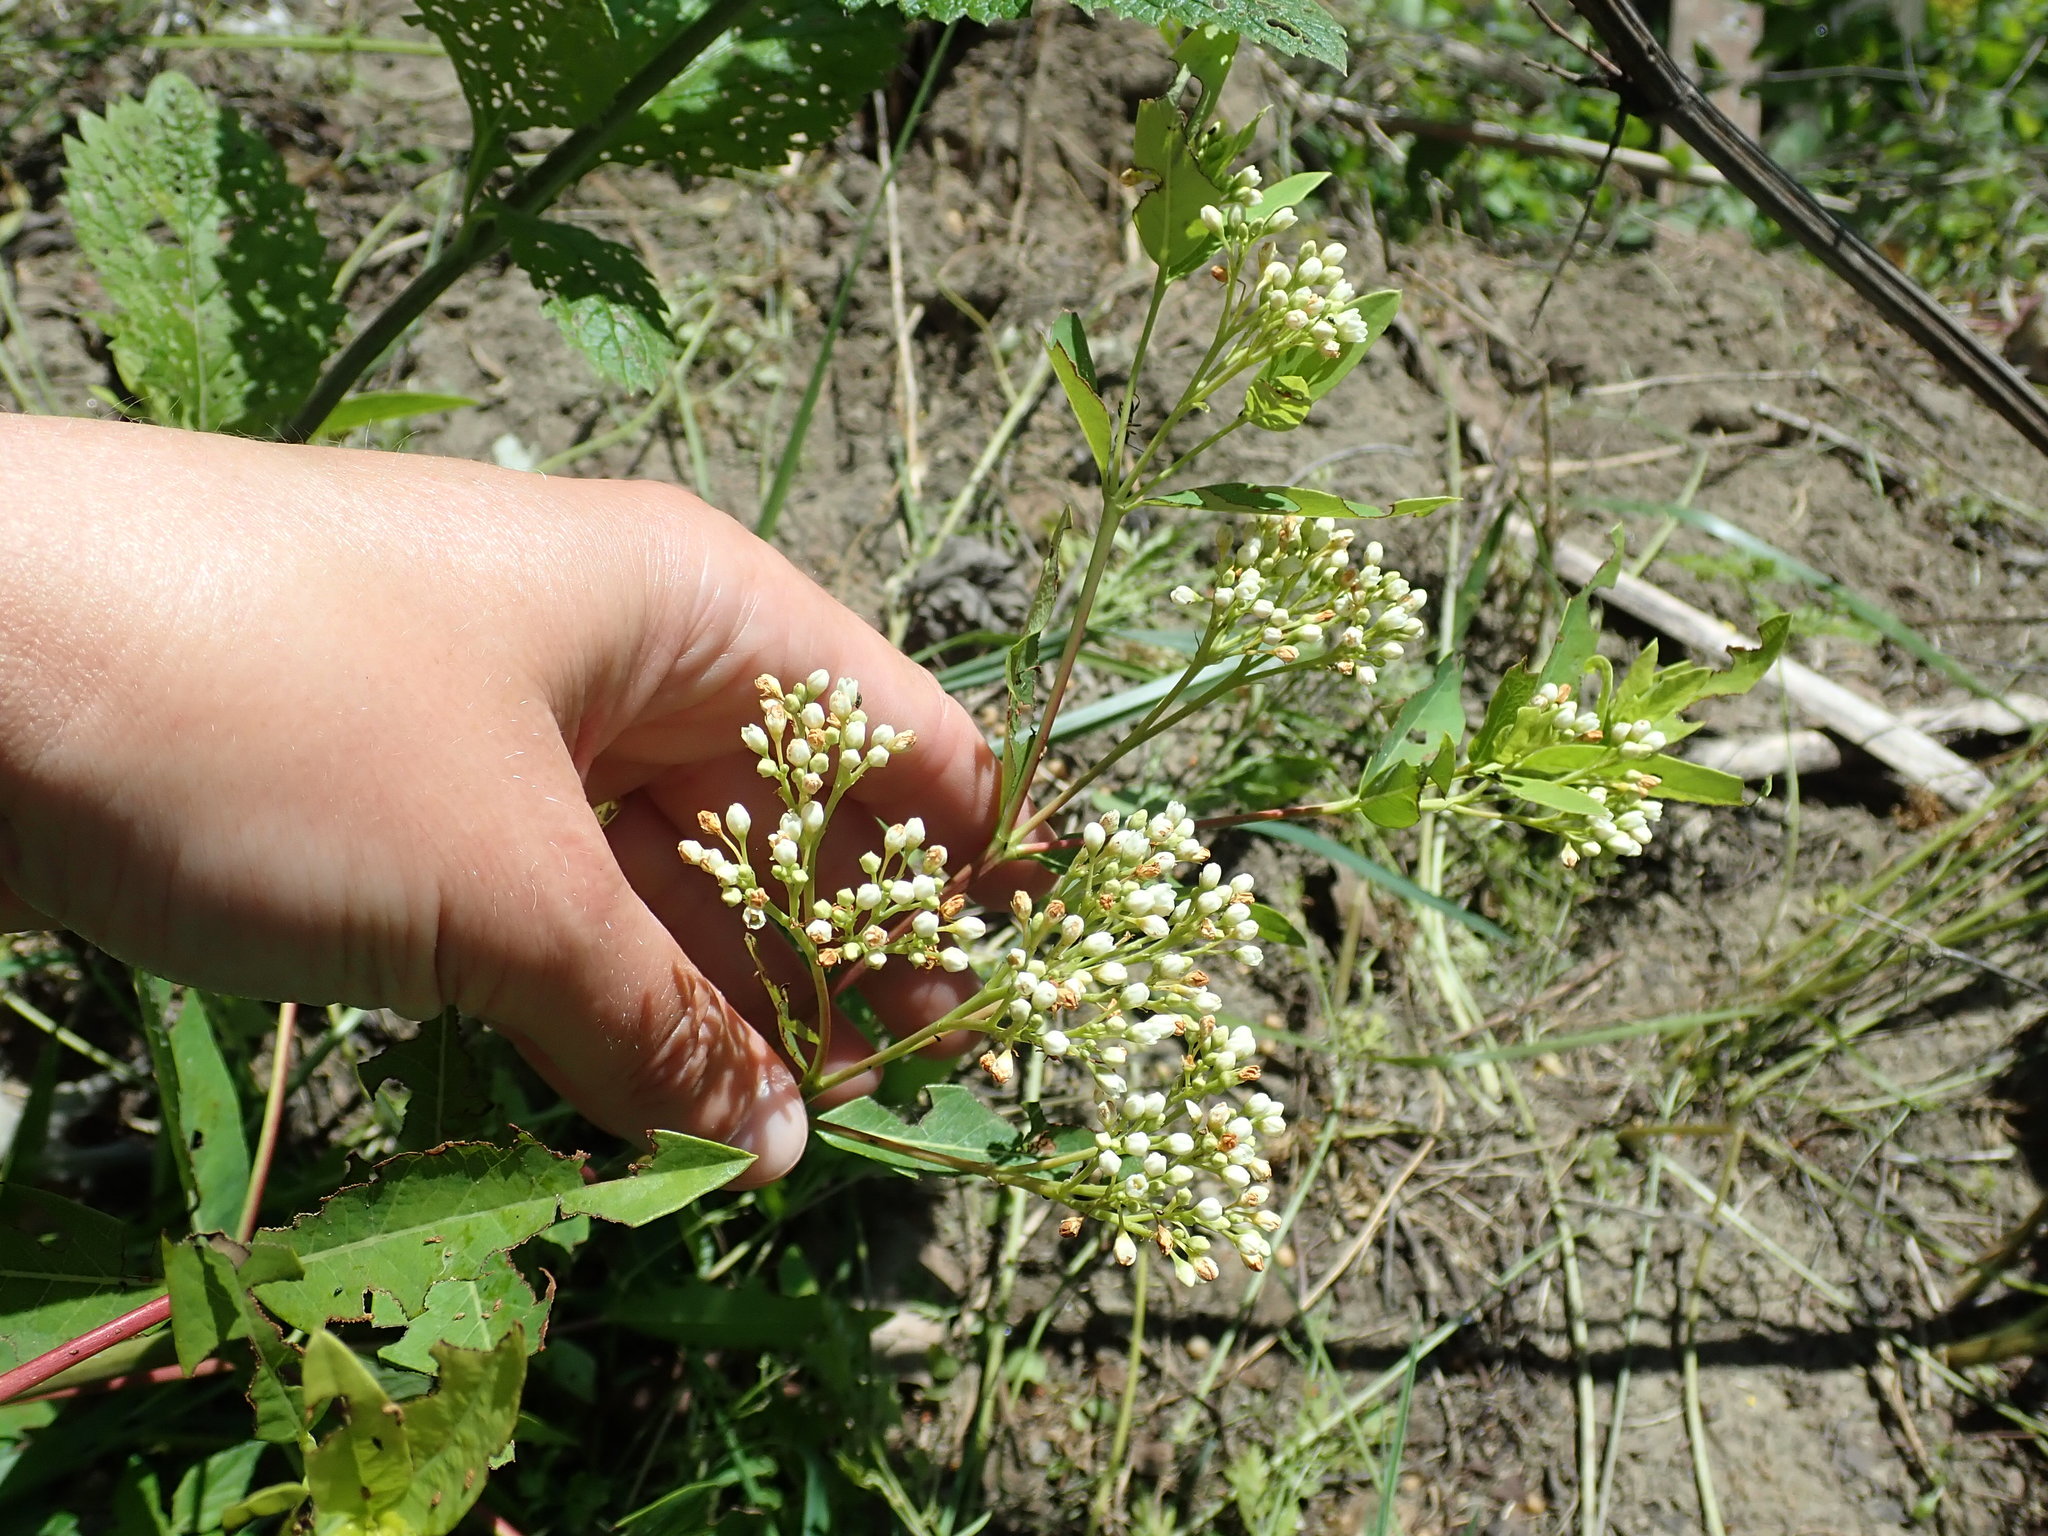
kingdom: Plantae
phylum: Tracheophyta
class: Magnoliopsida
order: Gentianales
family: Apocynaceae
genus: Apocynum
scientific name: Apocynum cannabinum
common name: Hemp dogbane
